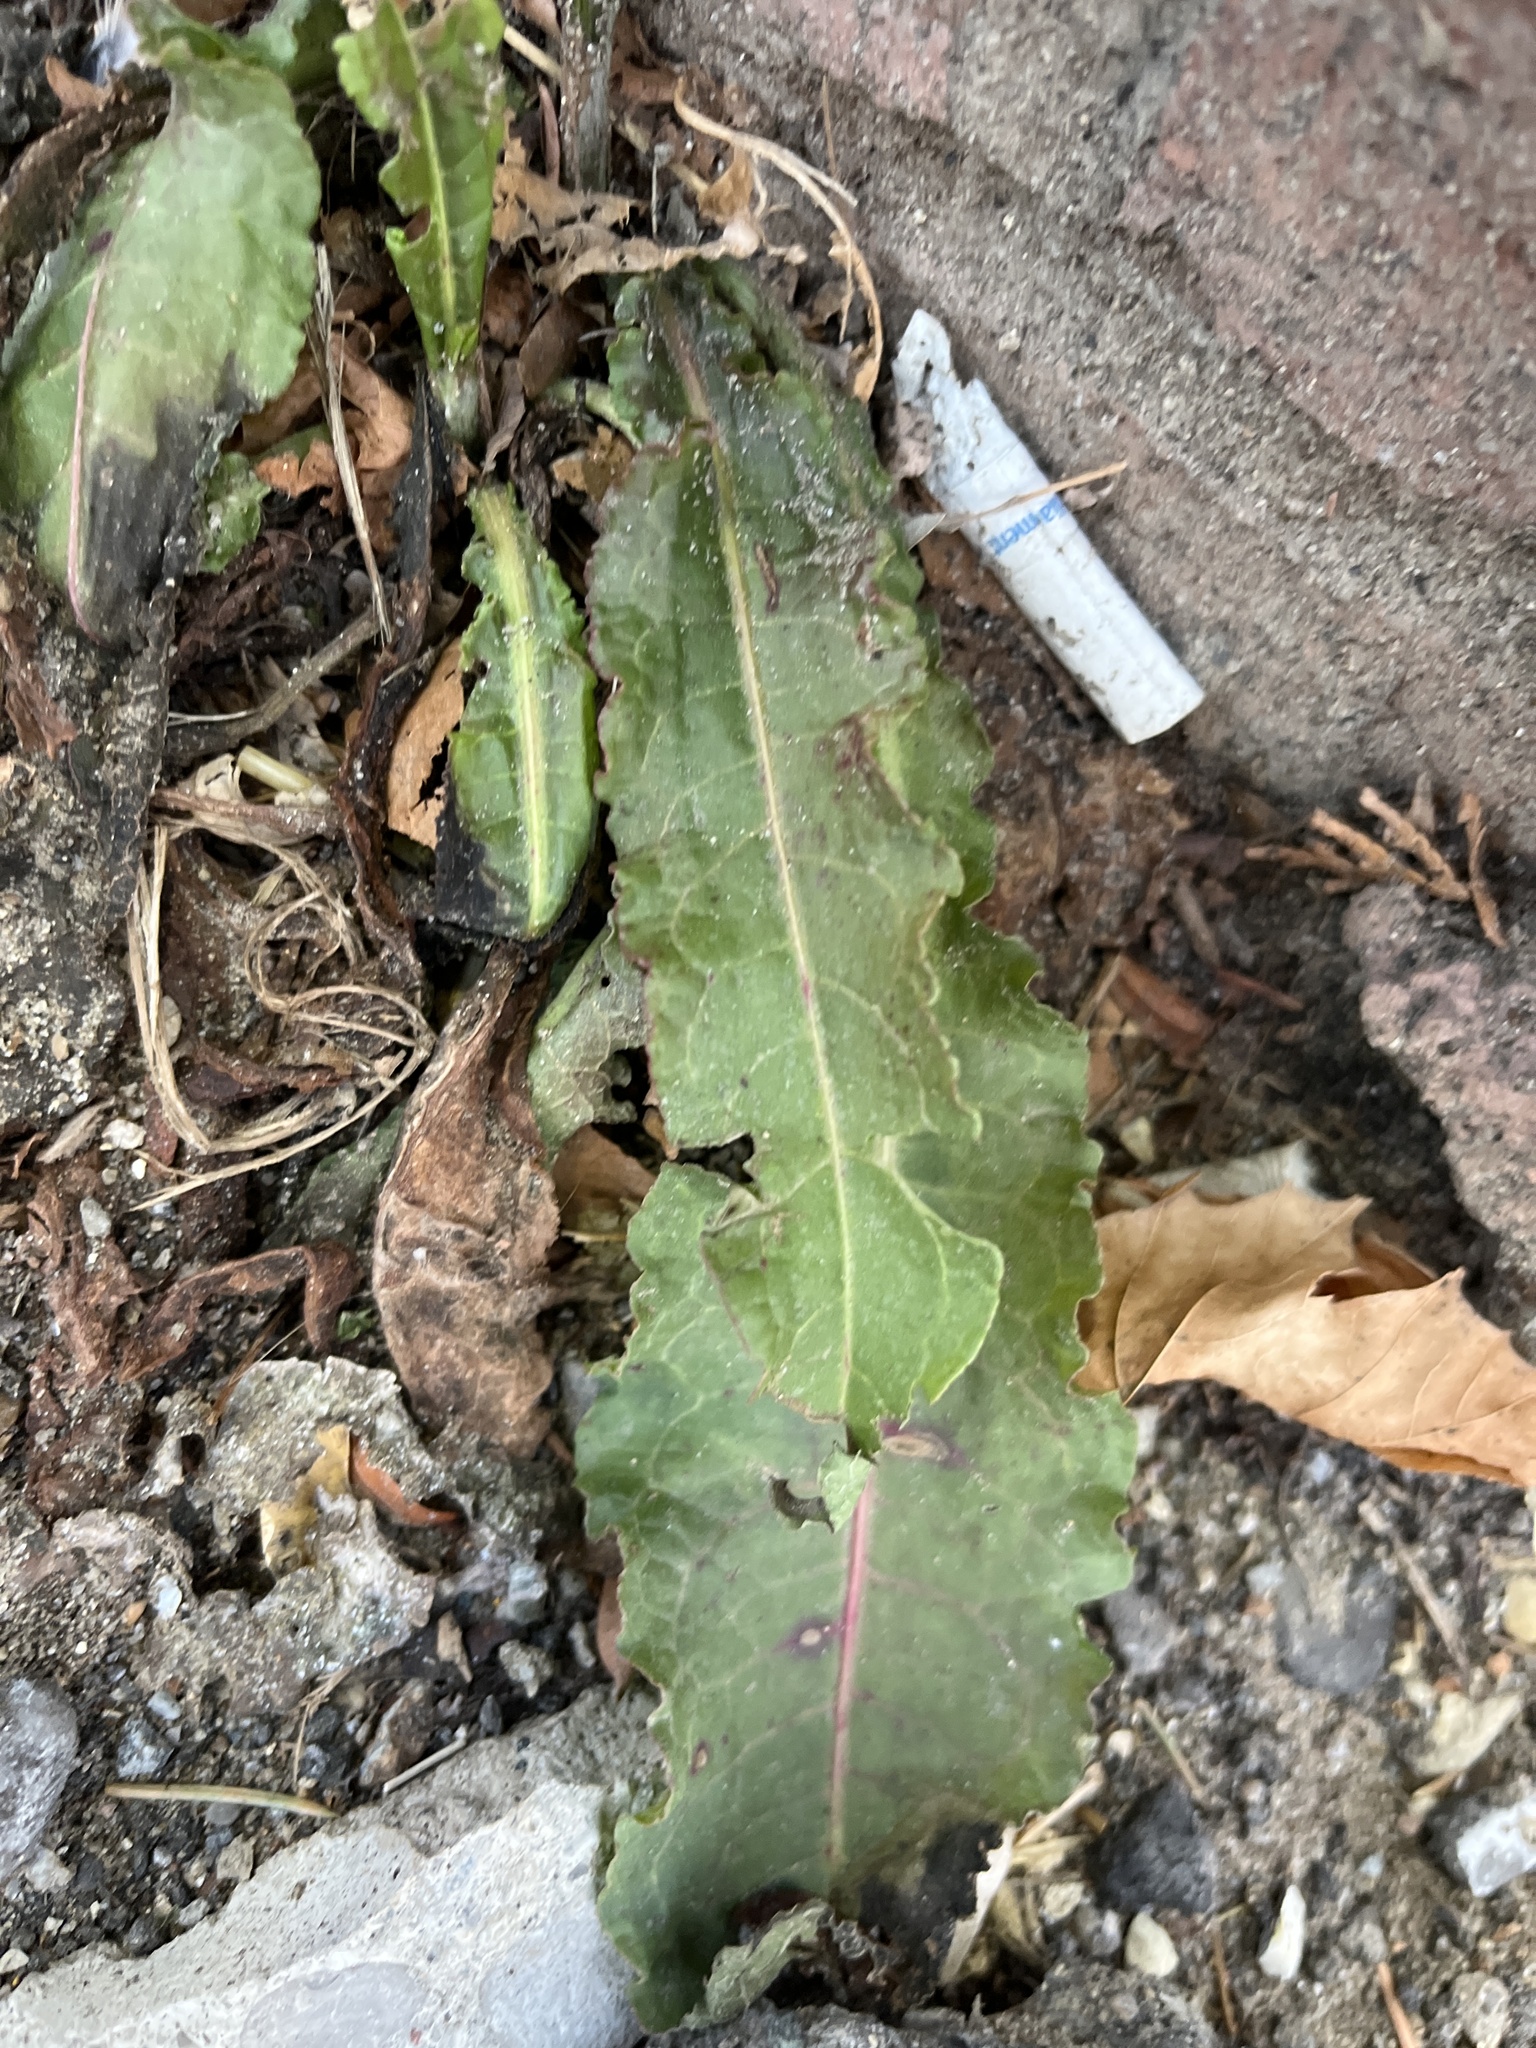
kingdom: Plantae
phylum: Tracheophyta
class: Magnoliopsida
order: Caryophyllales
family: Polygonaceae
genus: Rumex
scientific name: Rumex
